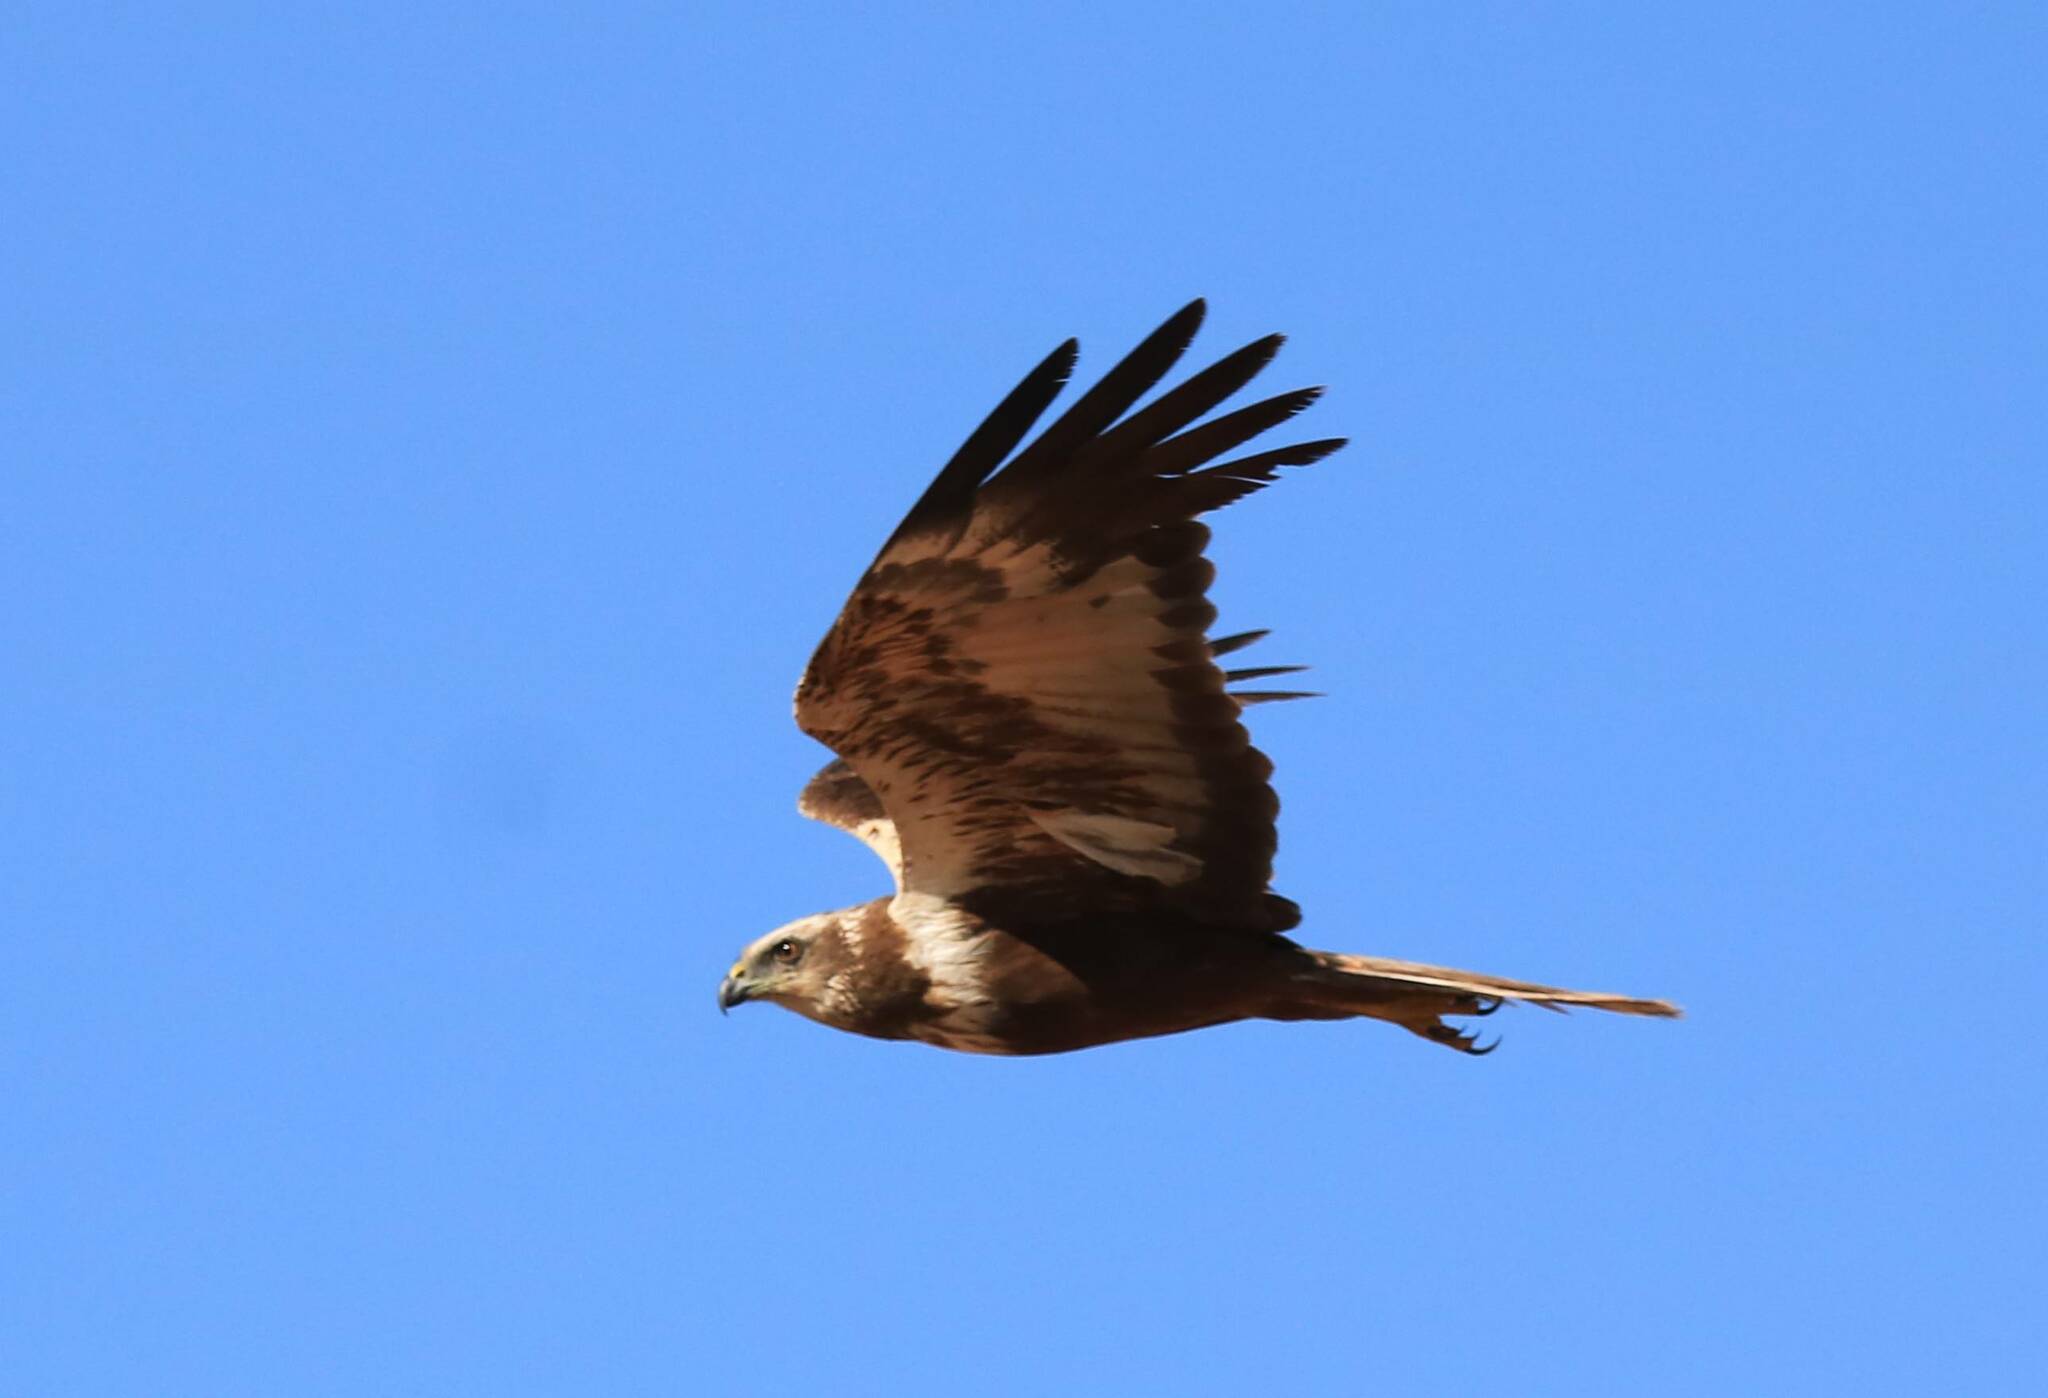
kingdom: Animalia
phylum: Chordata
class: Aves
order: Accipitriformes
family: Accipitridae
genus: Circus
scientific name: Circus aeruginosus
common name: Western marsh harrier
